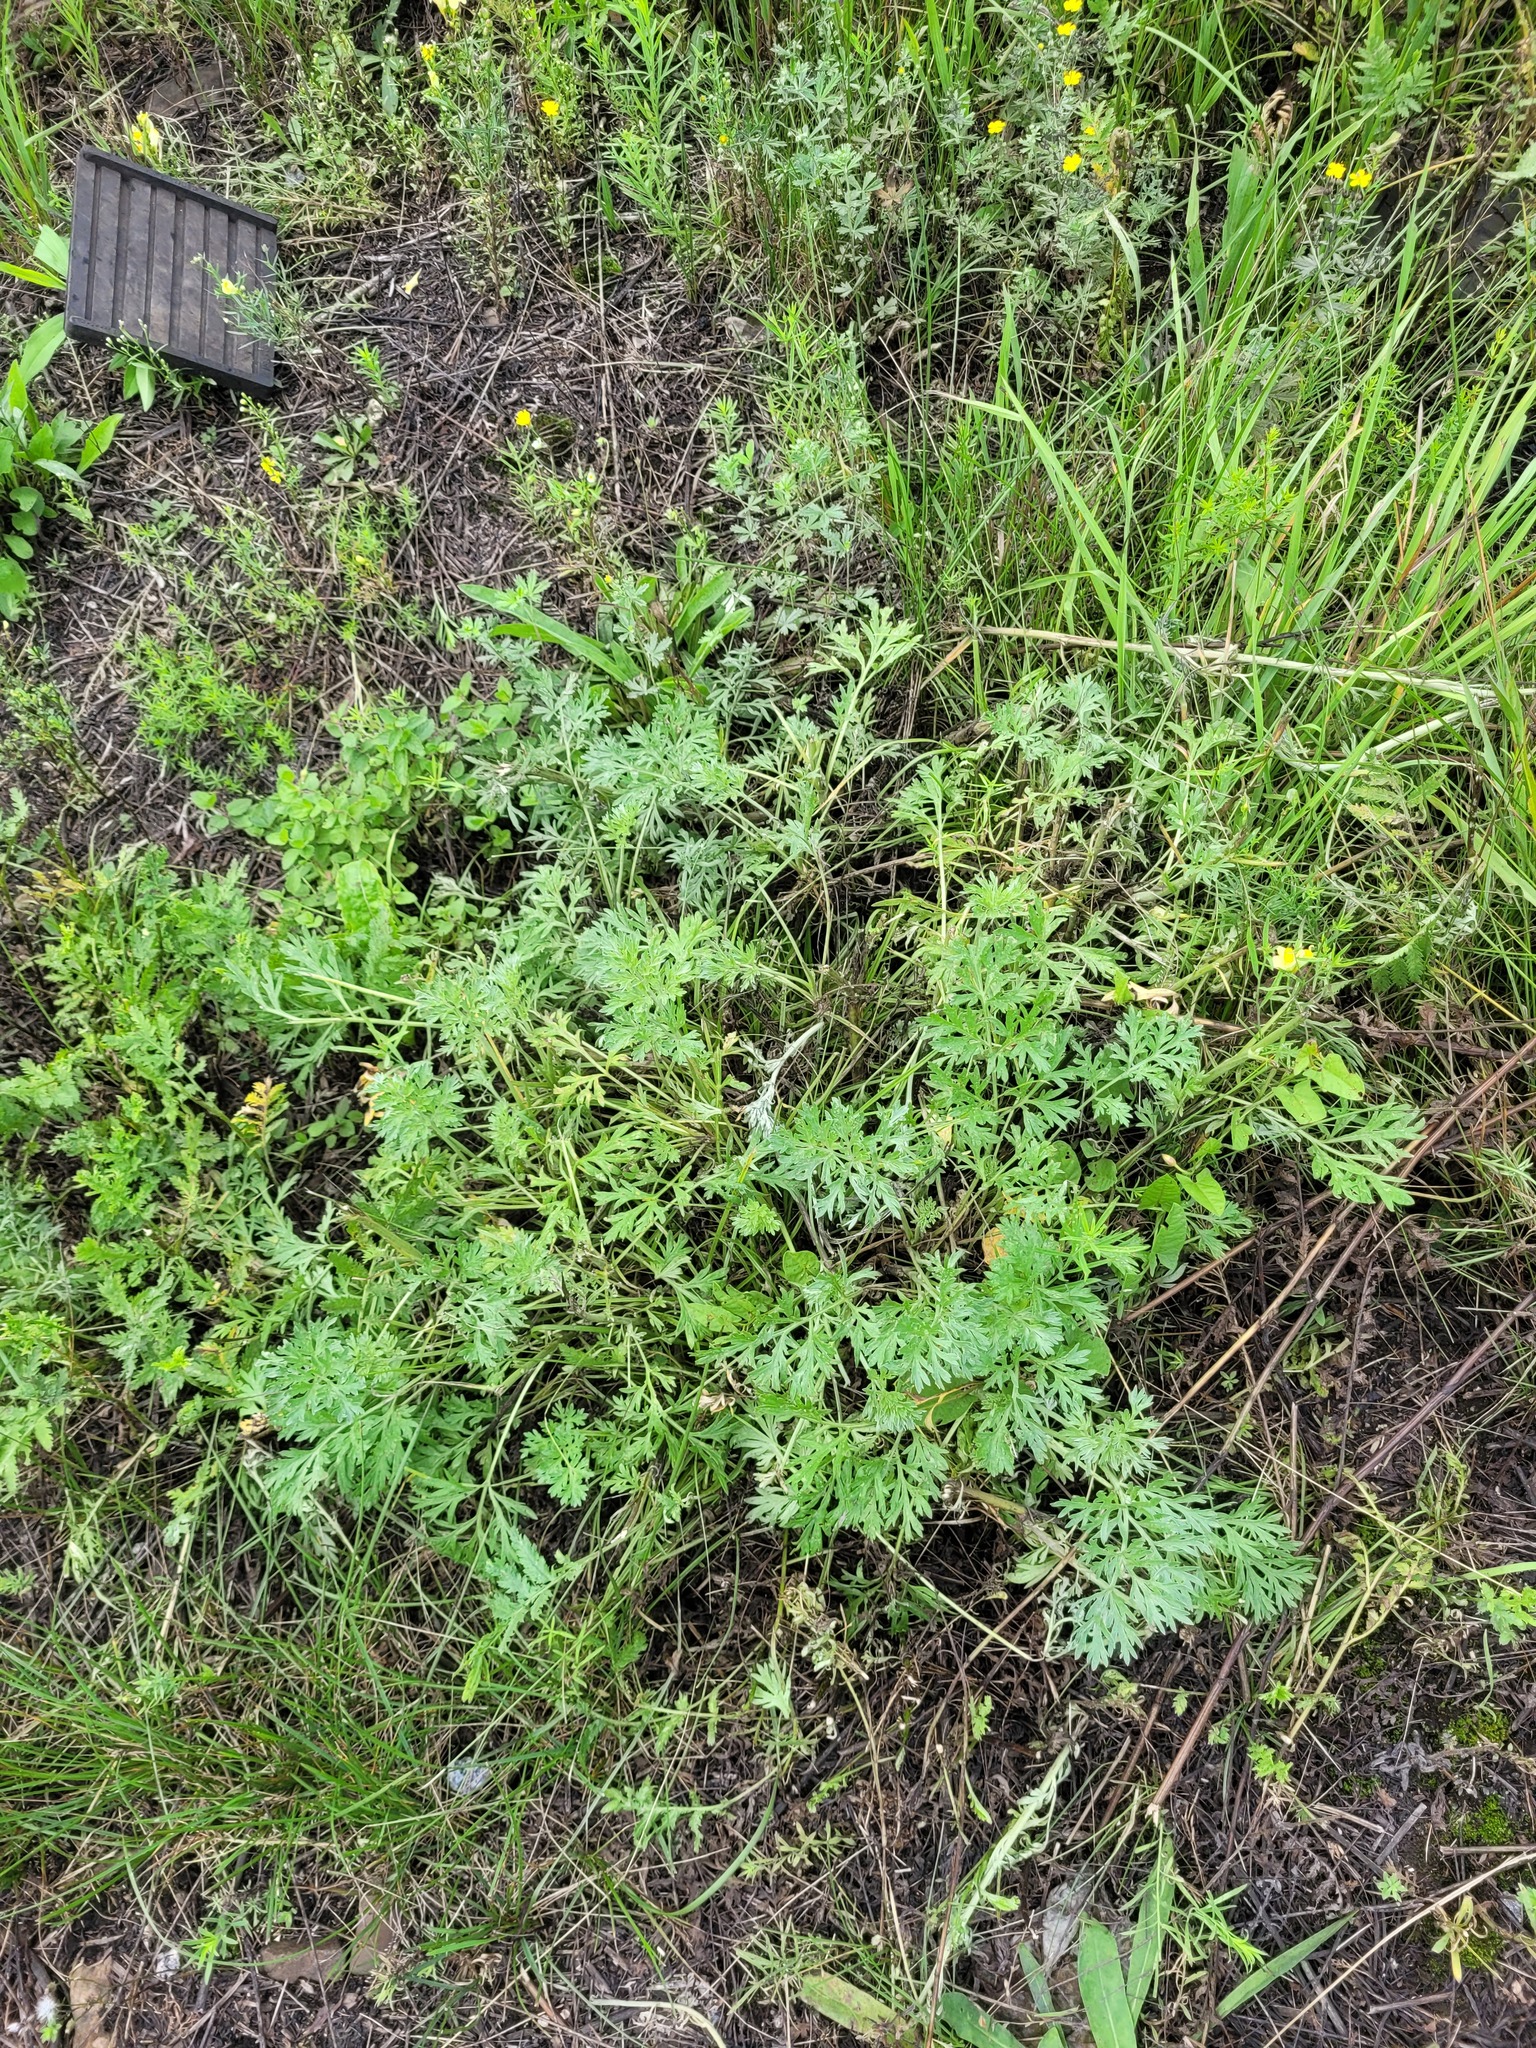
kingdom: Plantae
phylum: Tracheophyta
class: Magnoliopsida
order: Asterales
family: Asteraceae
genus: Artemisia
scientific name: Artemisia absinthium
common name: Wormwood
